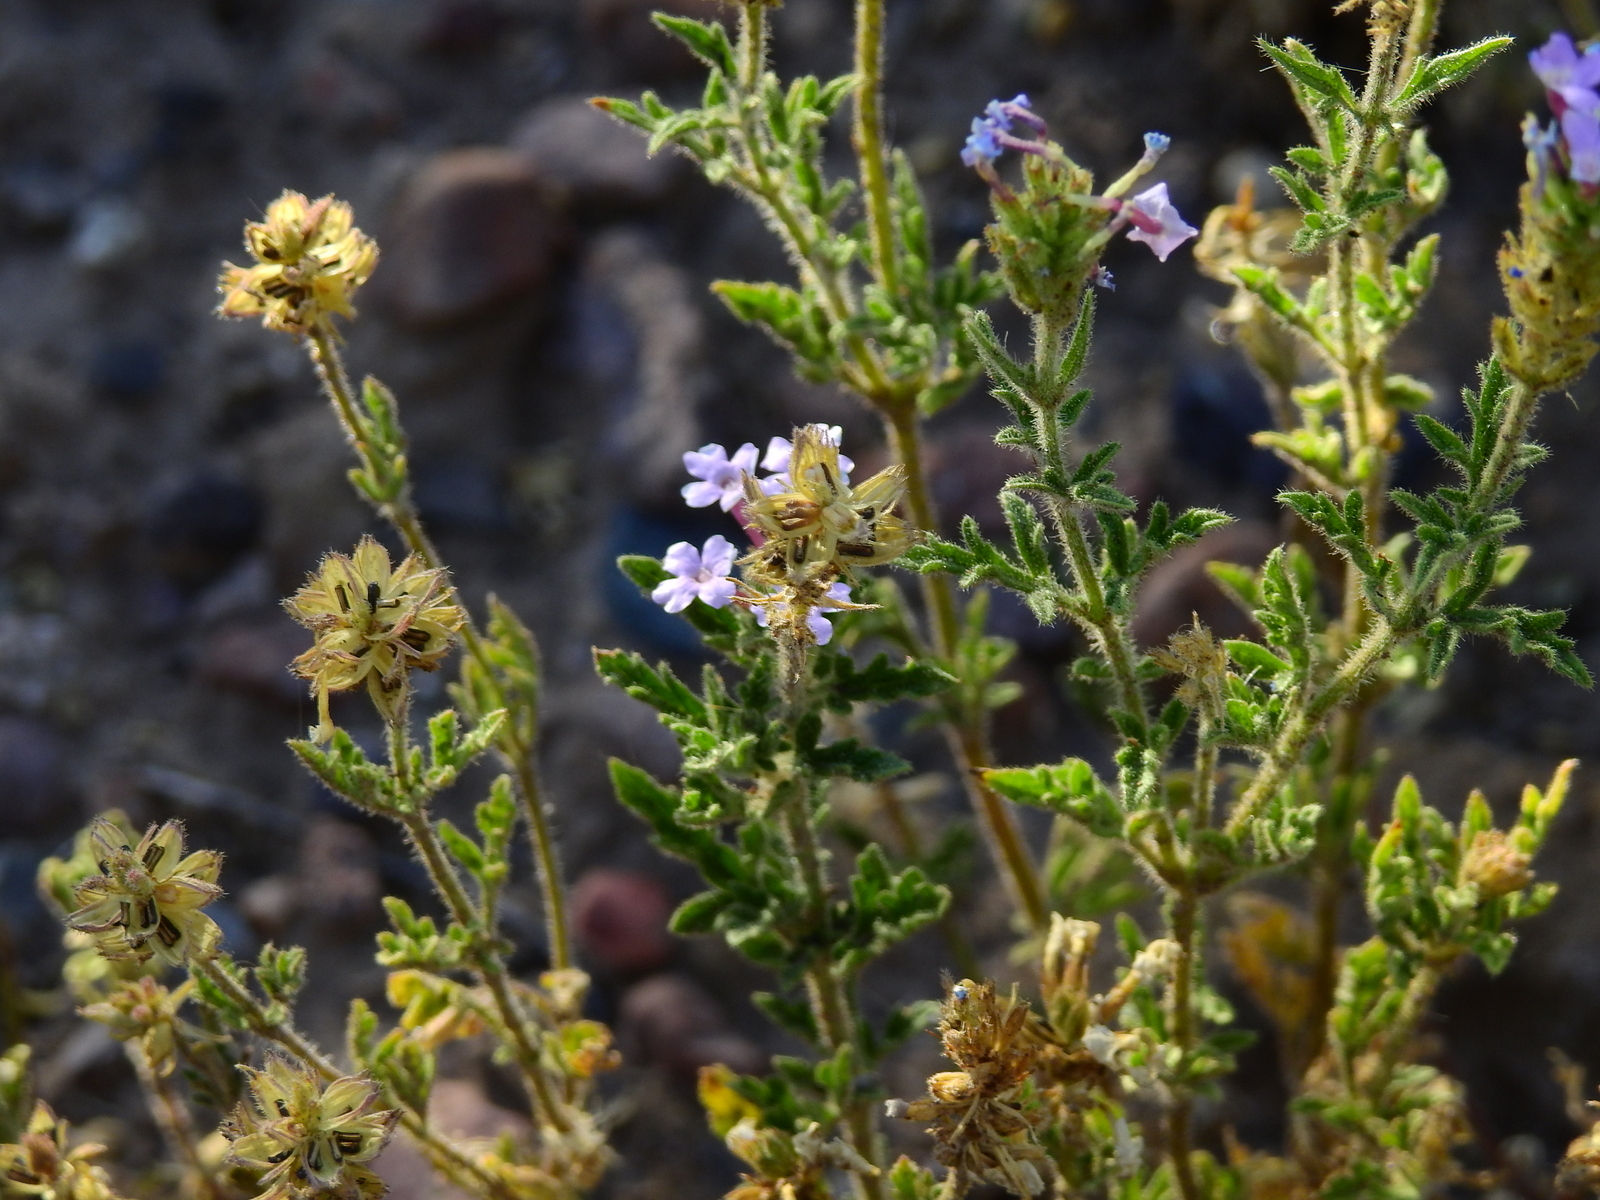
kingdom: Plantae
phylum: Tracheophyta
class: Magnoliopsida
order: Lamiales
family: Verbenaceae
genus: Verbena
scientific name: Verbena mendocina
